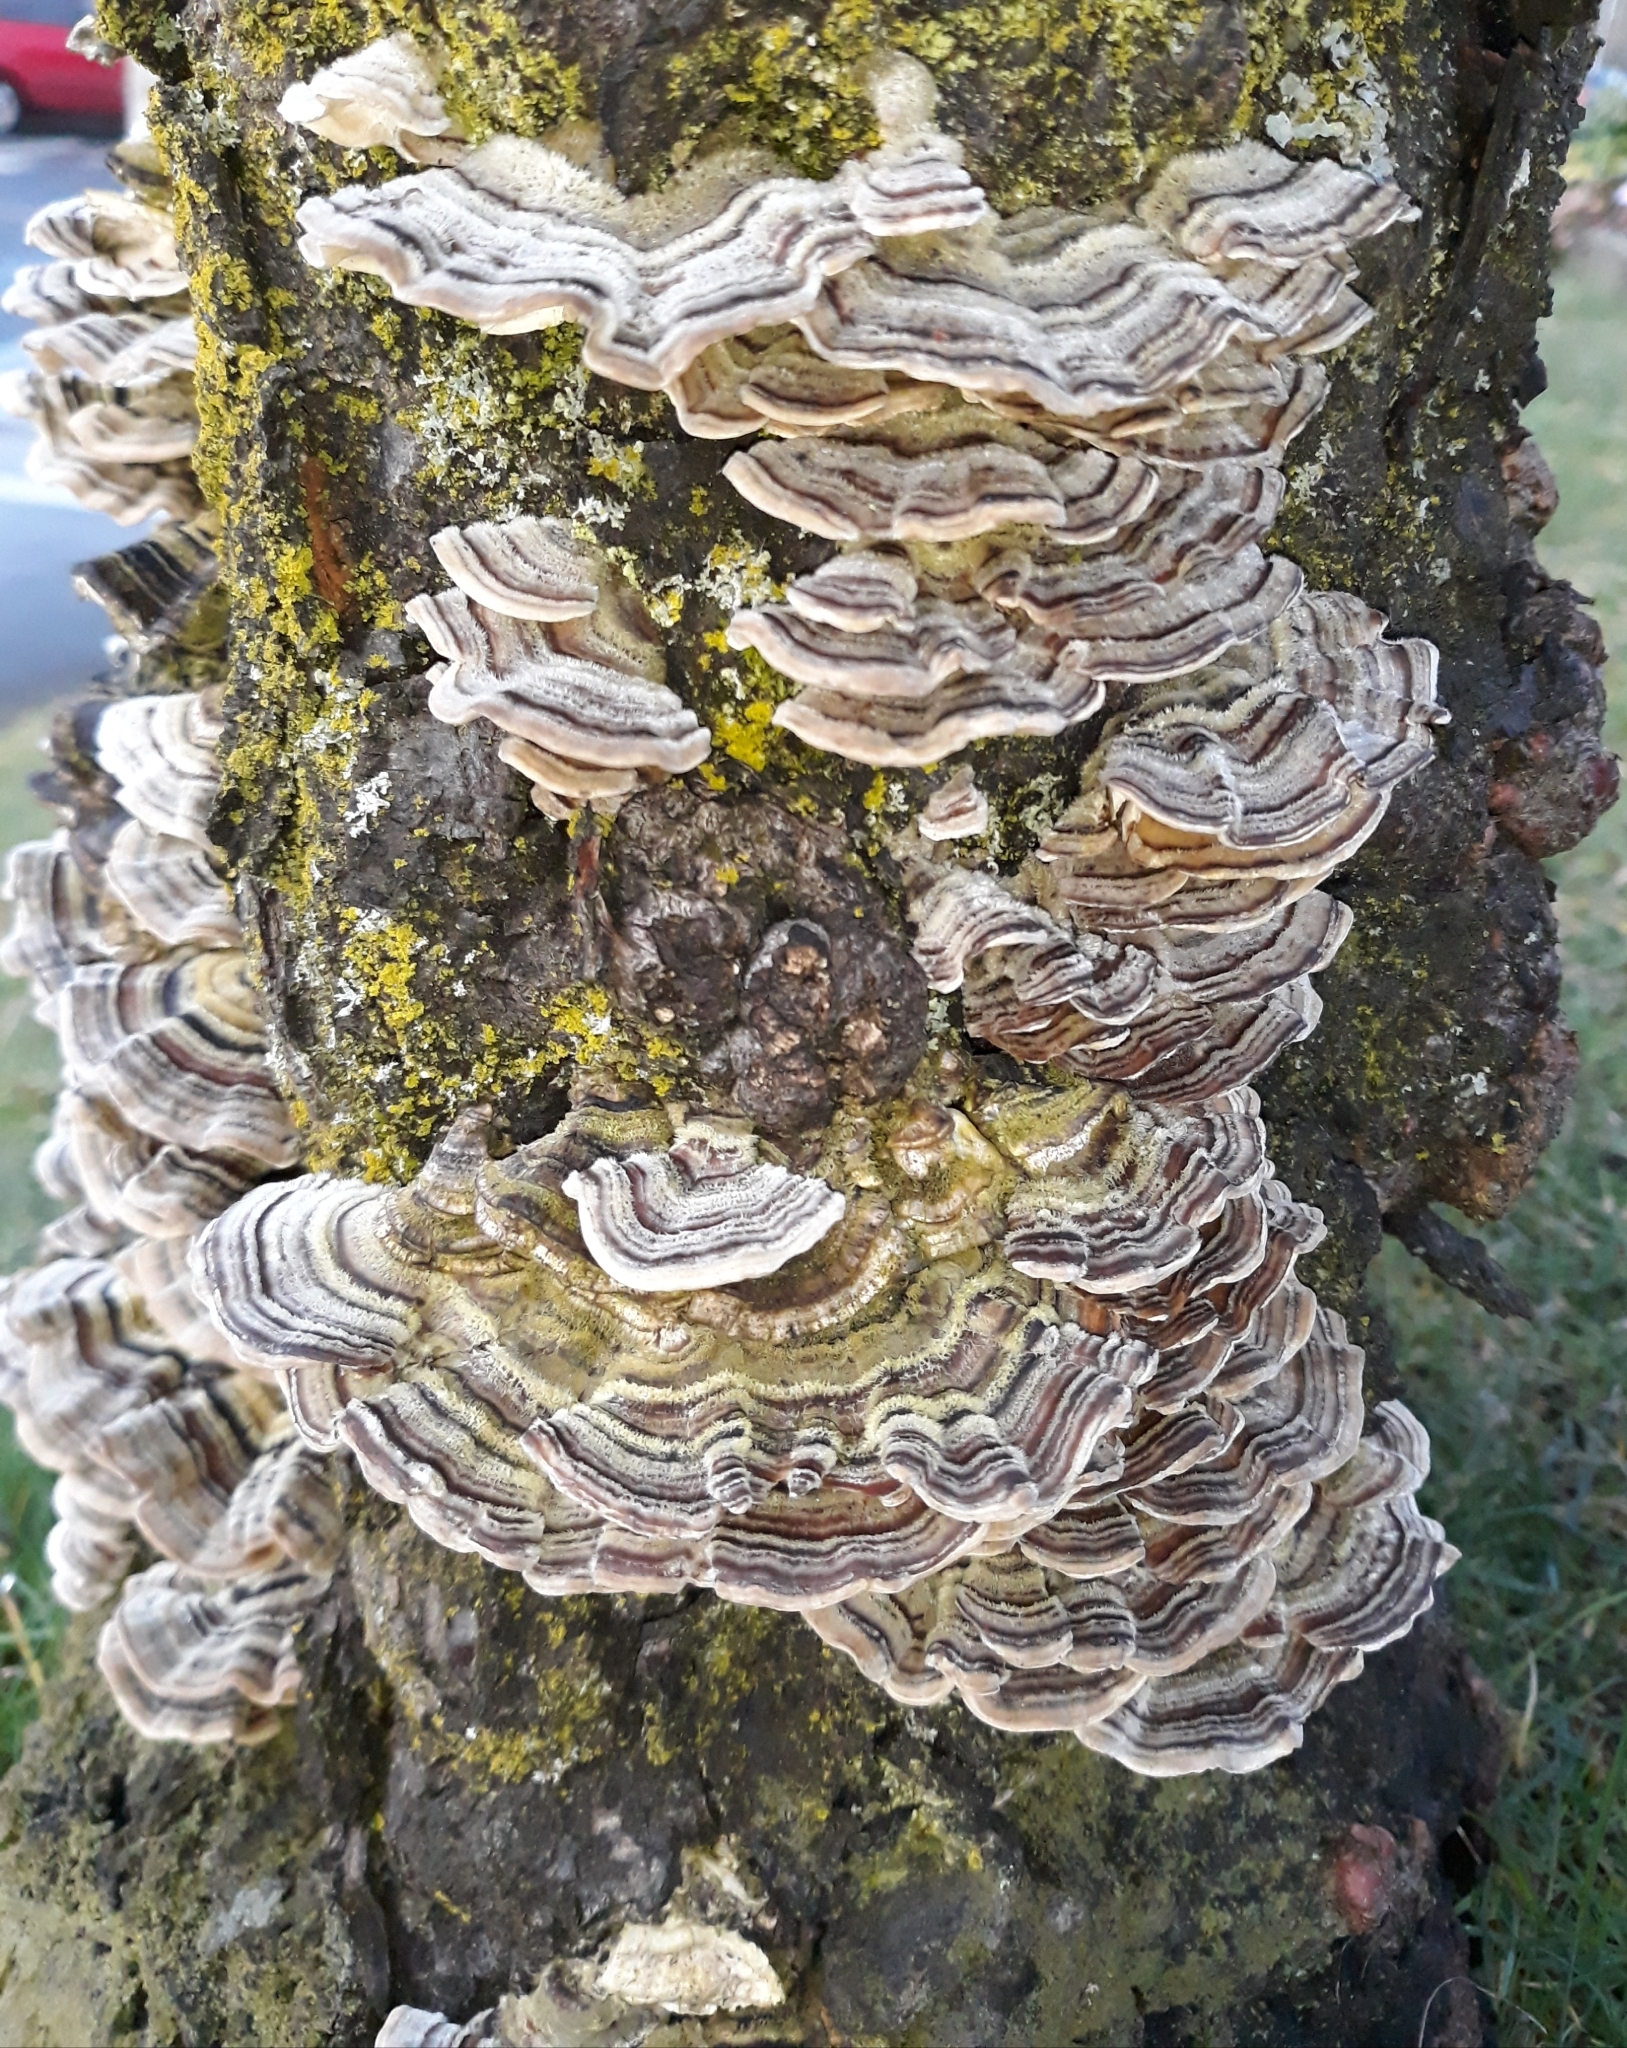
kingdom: Fungi
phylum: Basidiomycota
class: Agaricomycetes
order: Polyporales
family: Polyporaceae
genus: Trametes
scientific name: Trametes versicolor
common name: Turkeytail
